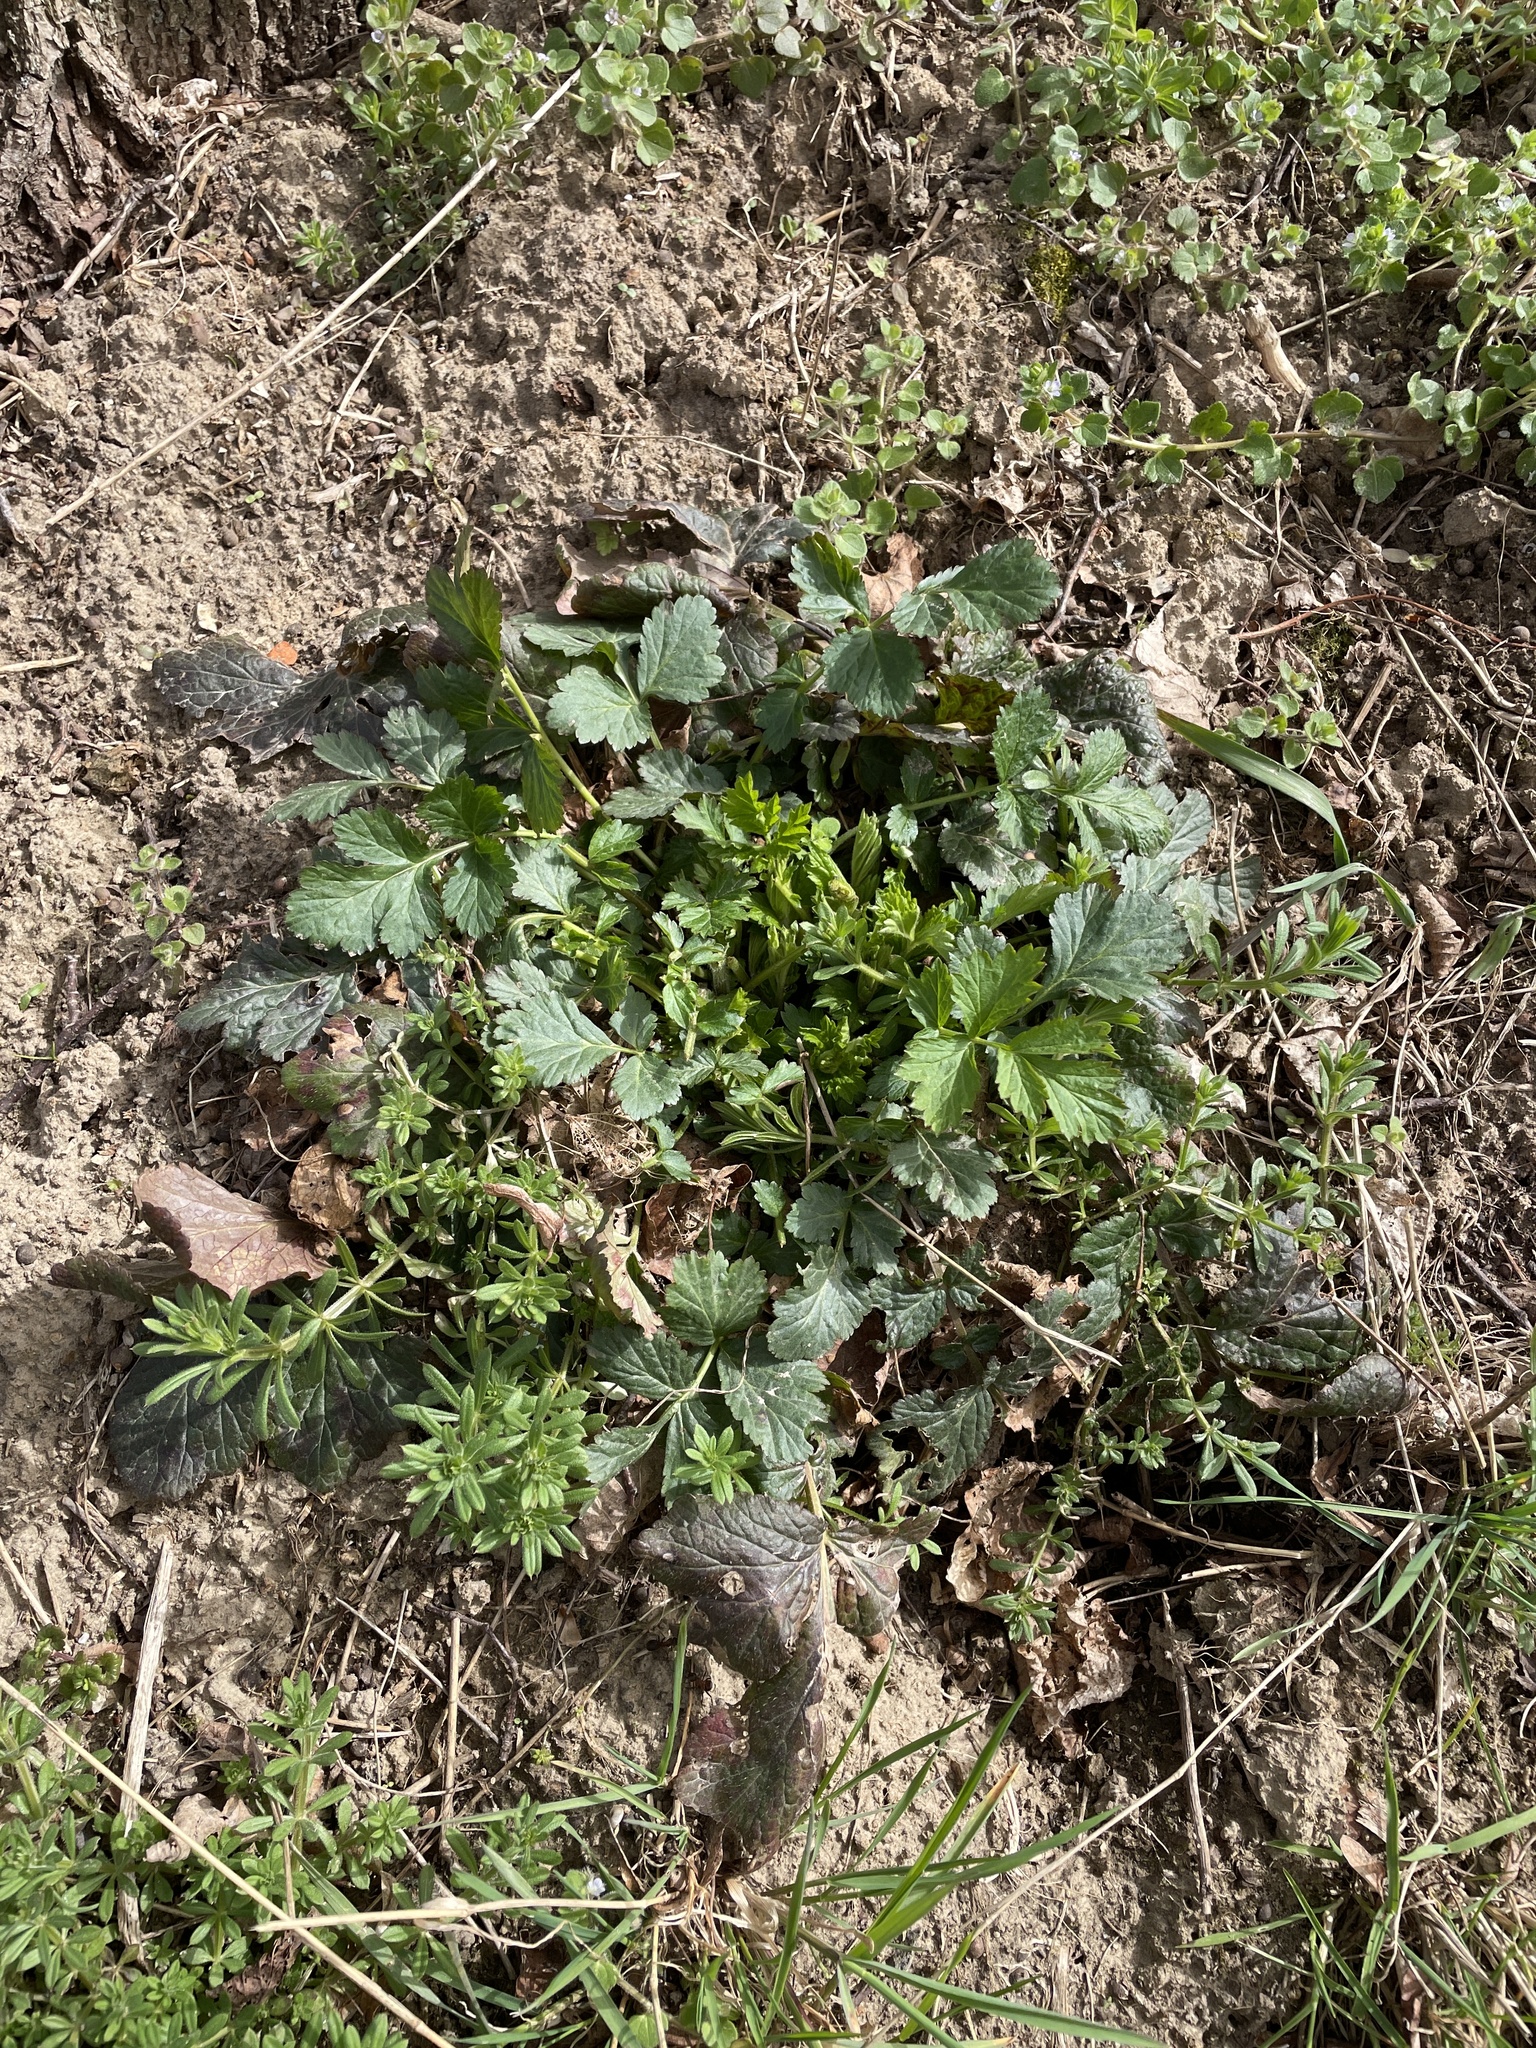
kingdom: Plantae
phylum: Tracheophyta
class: Magnoliopsida
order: Rosales
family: Rosaceae
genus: Geum
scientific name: Geum urbanum
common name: Wood avens
